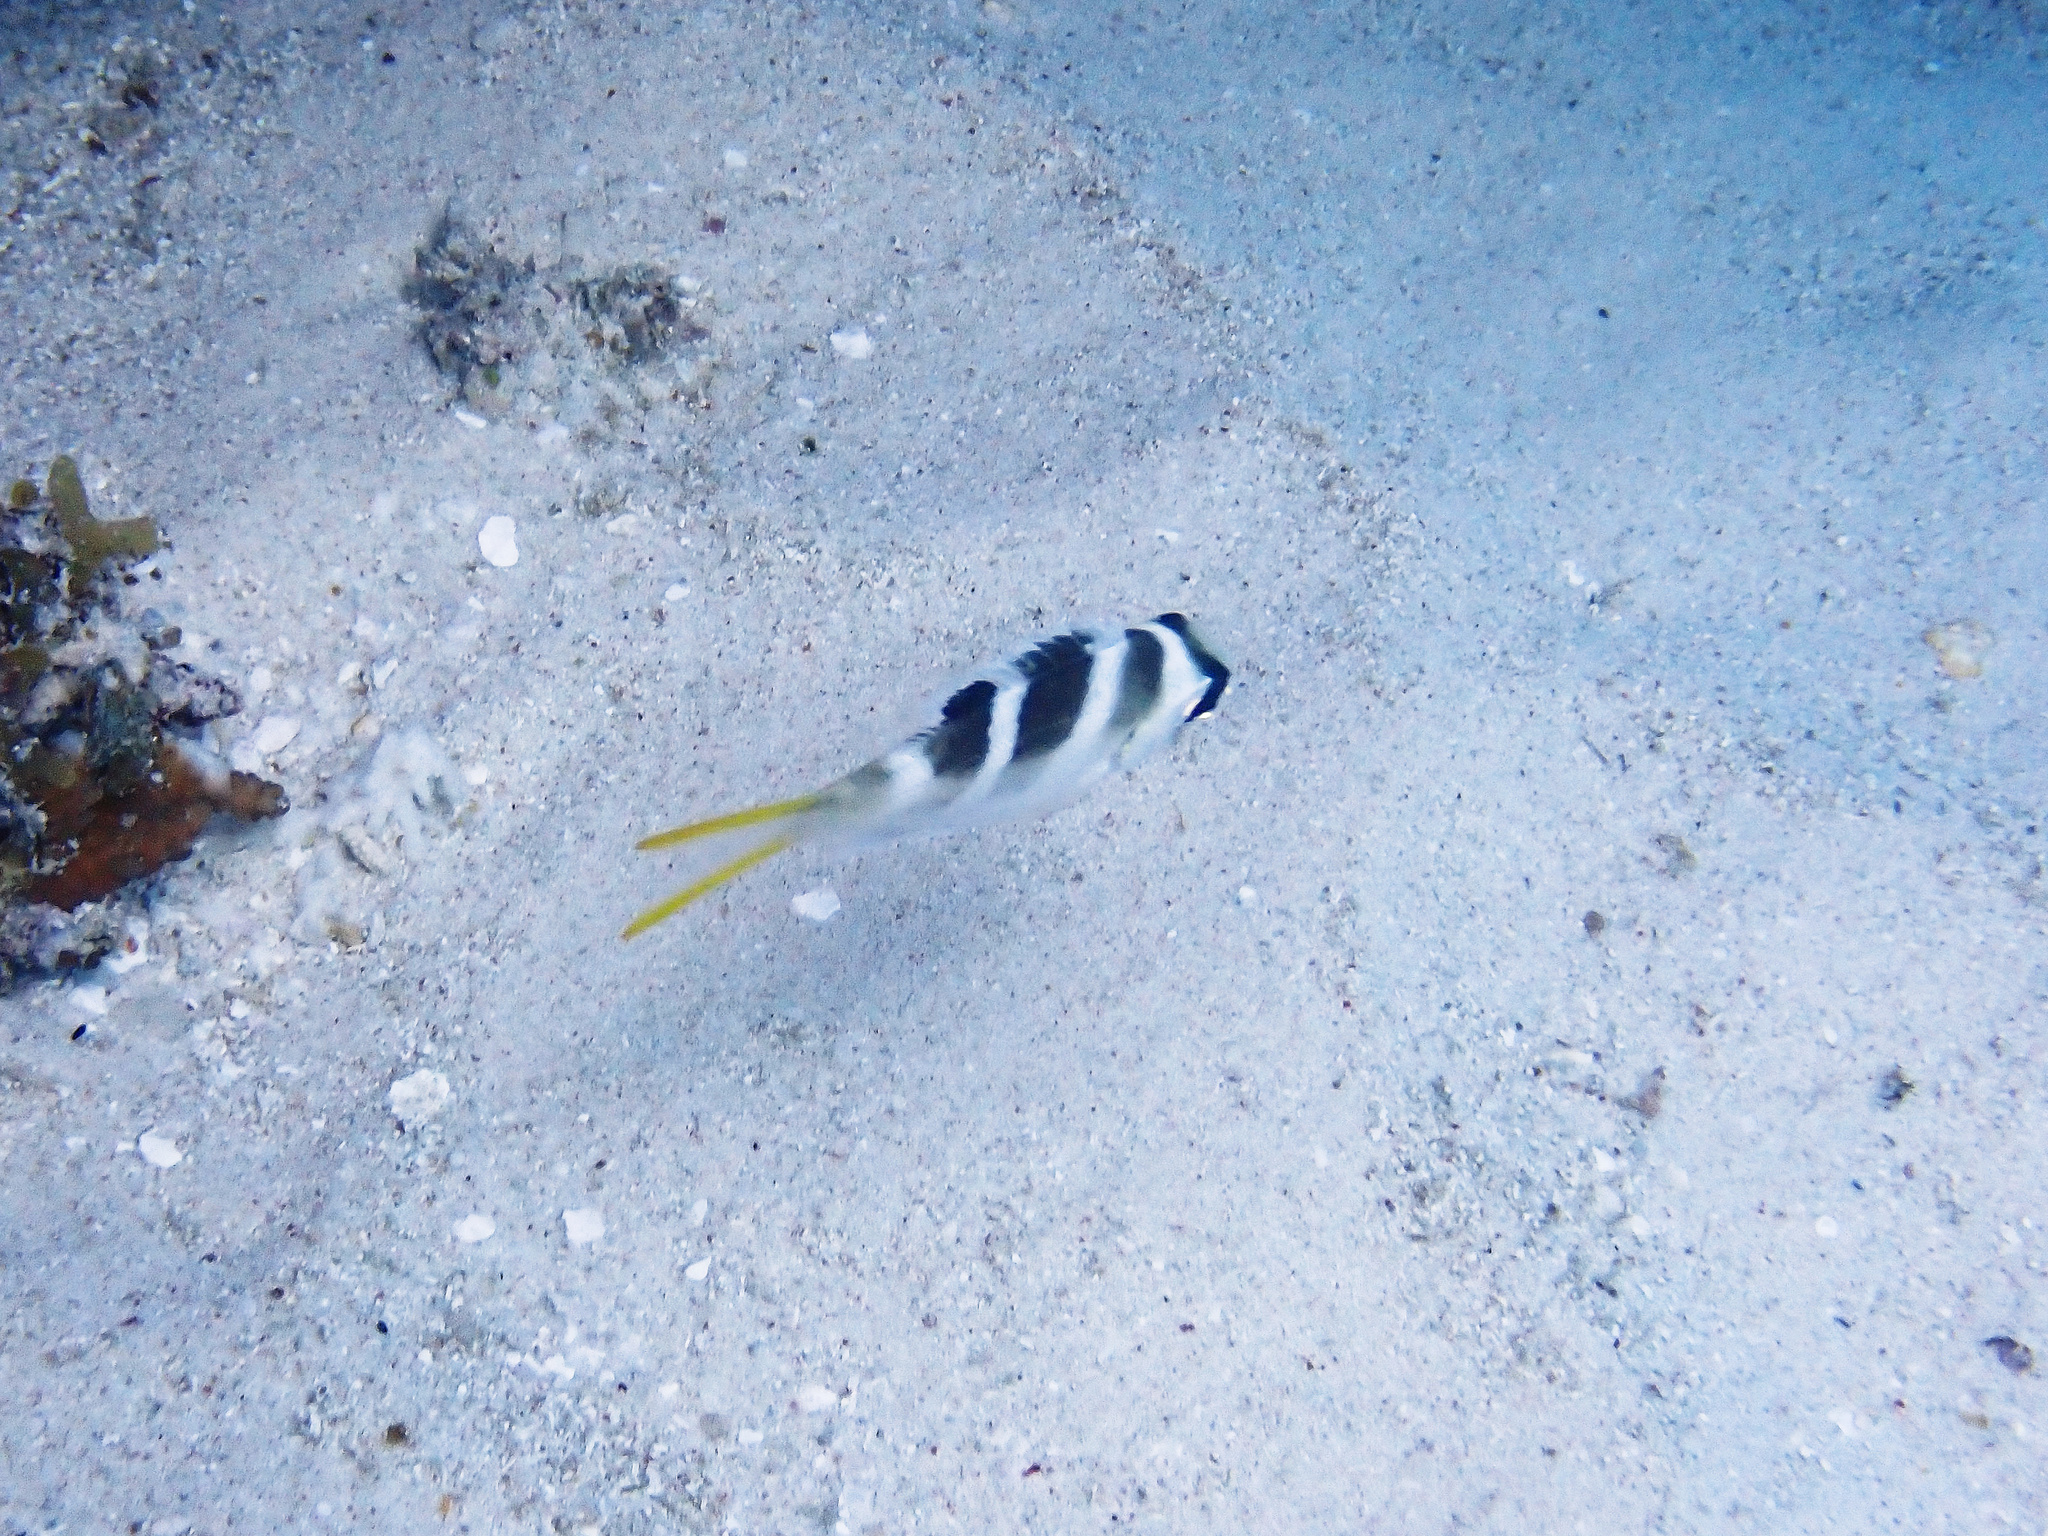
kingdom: Animalia
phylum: Chordata
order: Perciformes
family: Lethrinidae
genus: Monotaxis
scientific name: Monotaxis grandoculis
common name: Bigeye emperor
